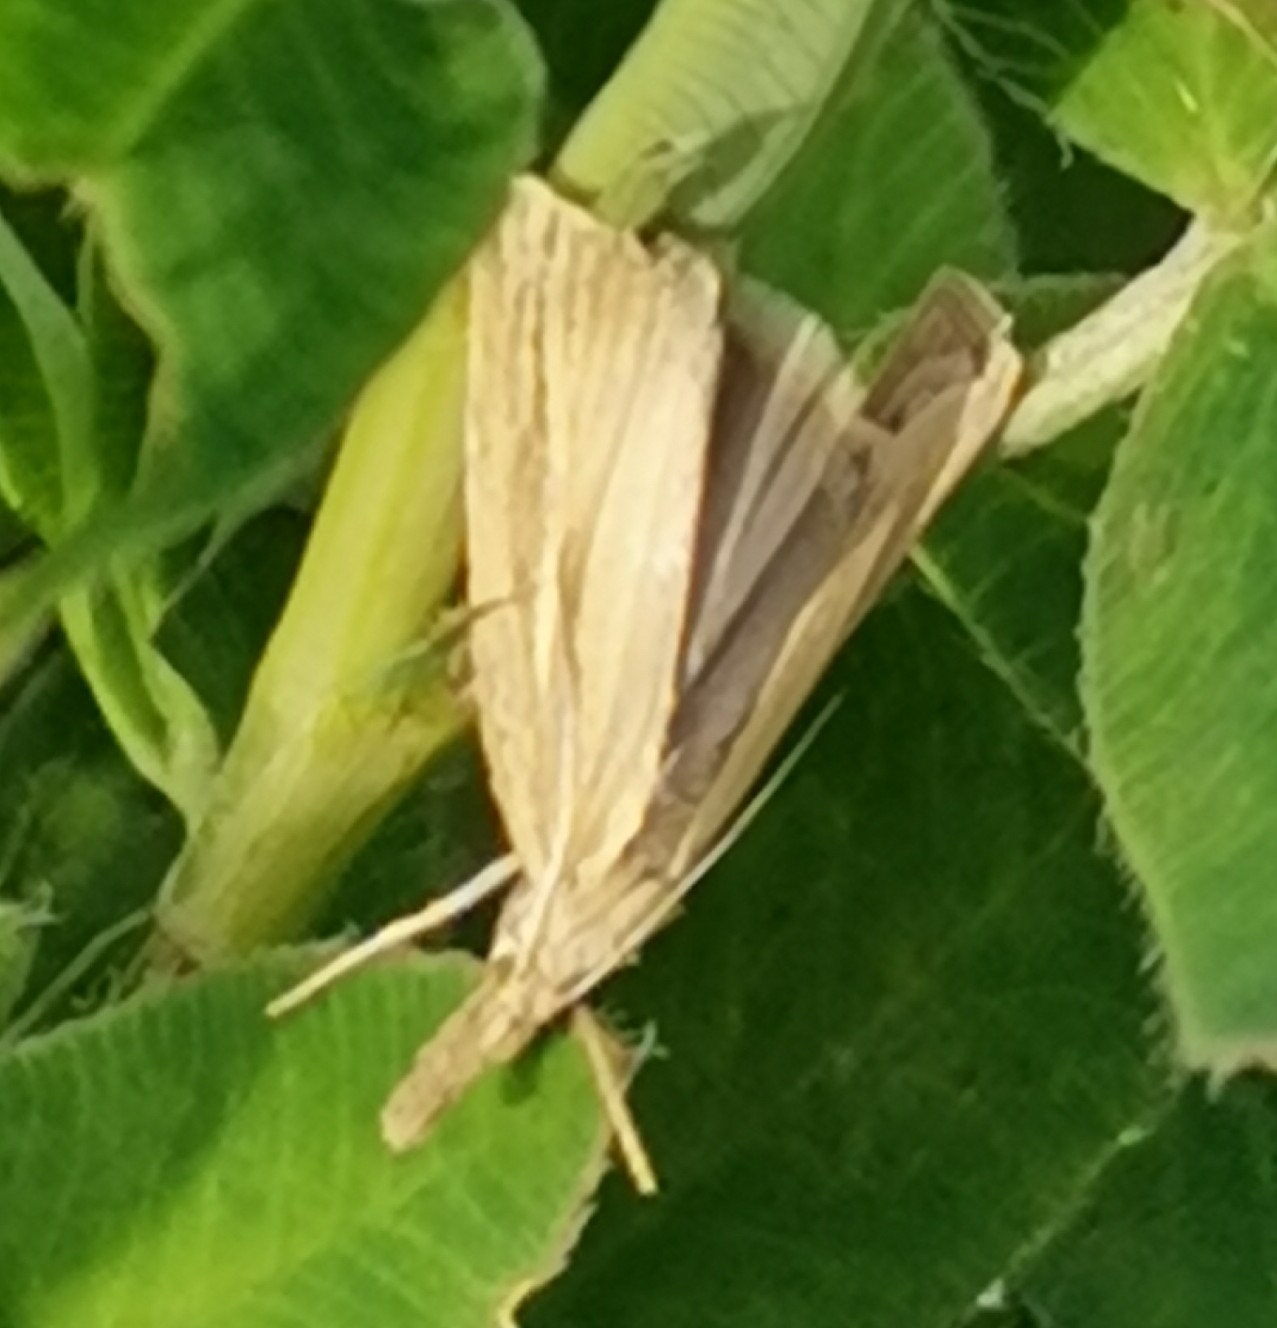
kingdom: Animalia
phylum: Arthropoda
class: Insecta
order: Lepidoptera
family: Crambidae
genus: Agriphila
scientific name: Agriphila straminella
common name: Straw grass-veneer
